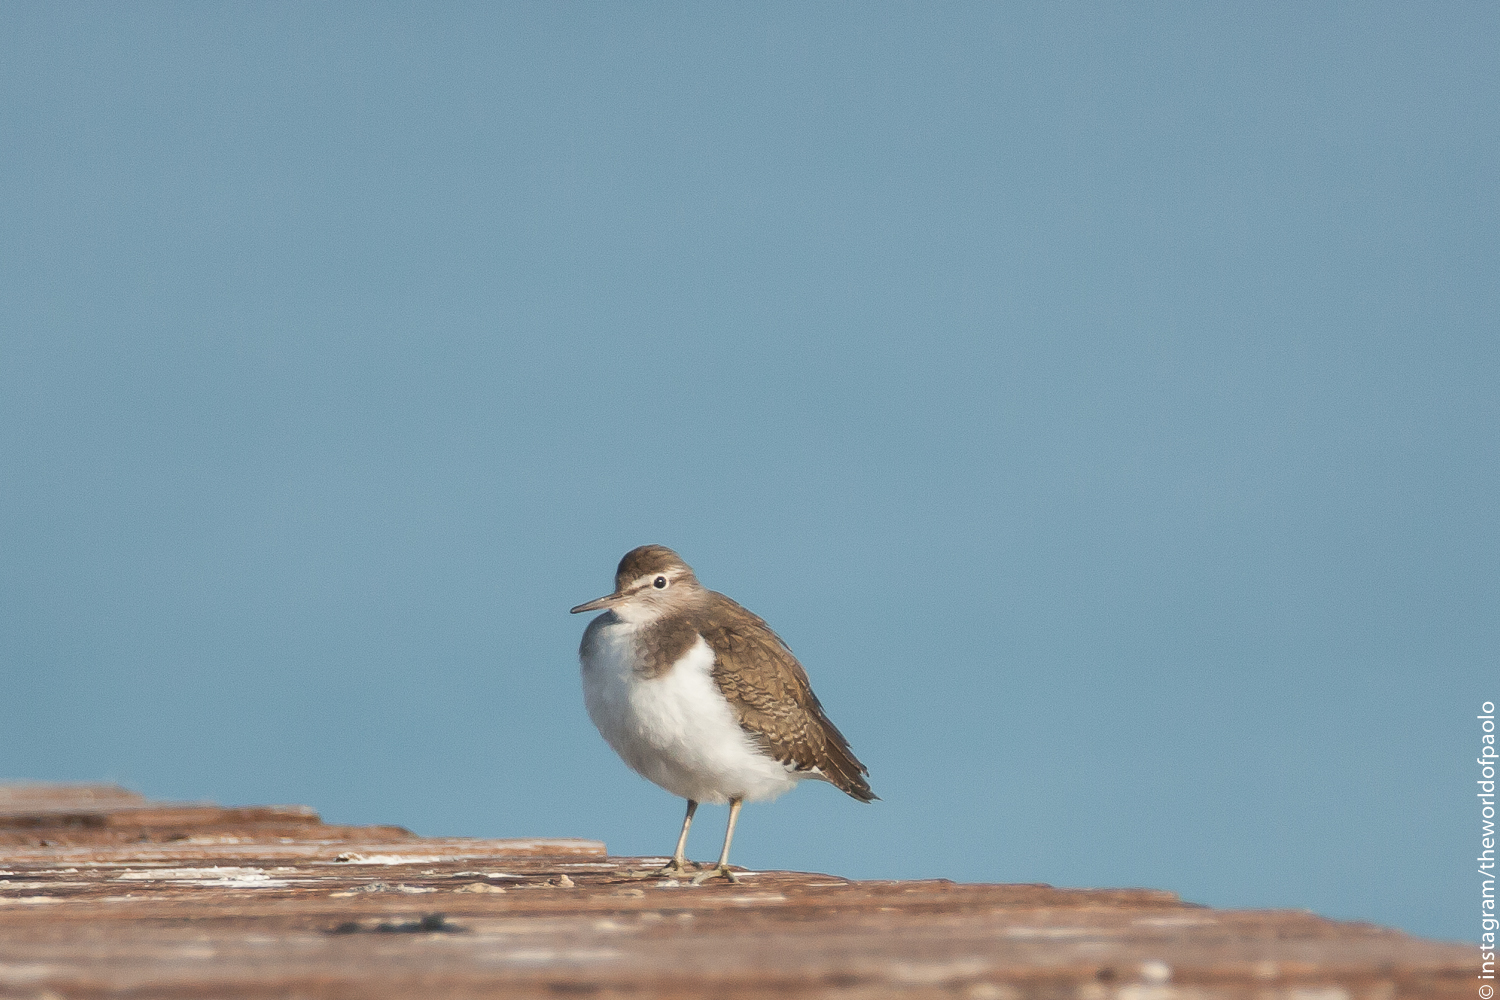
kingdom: Animalia
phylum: Chordata
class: Aves
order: Charadriiformes
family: Scolopacidae
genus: Actitis
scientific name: Actitis hypoleucos
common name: Common sandpiper
